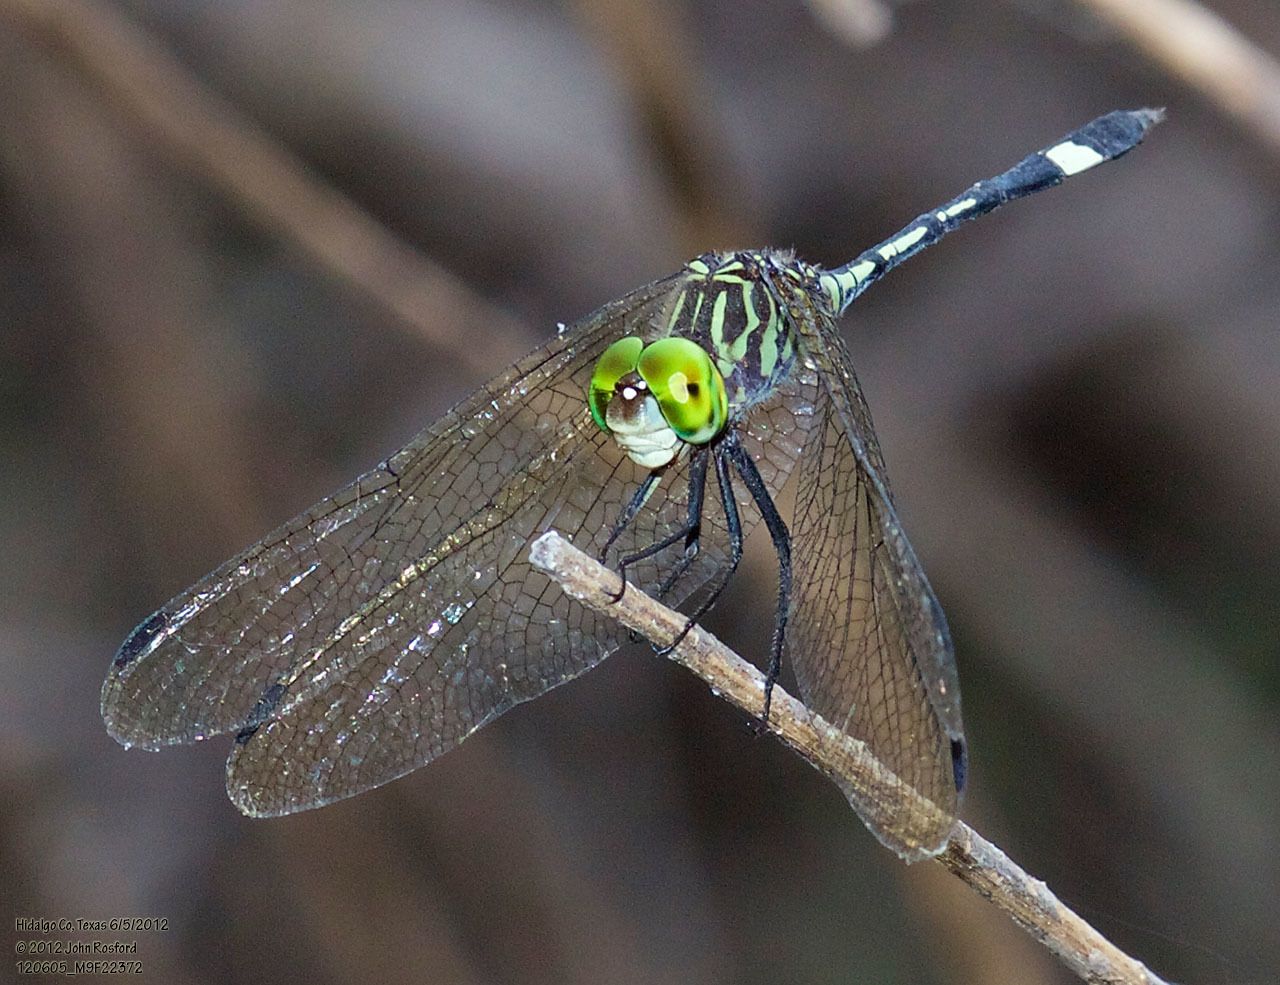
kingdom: Animalia
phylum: Arthropoda
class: Insecta
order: Odonata
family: Libellulidae
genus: Micrathyria
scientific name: Micrathyria dissocians
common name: Caribbean dasher
